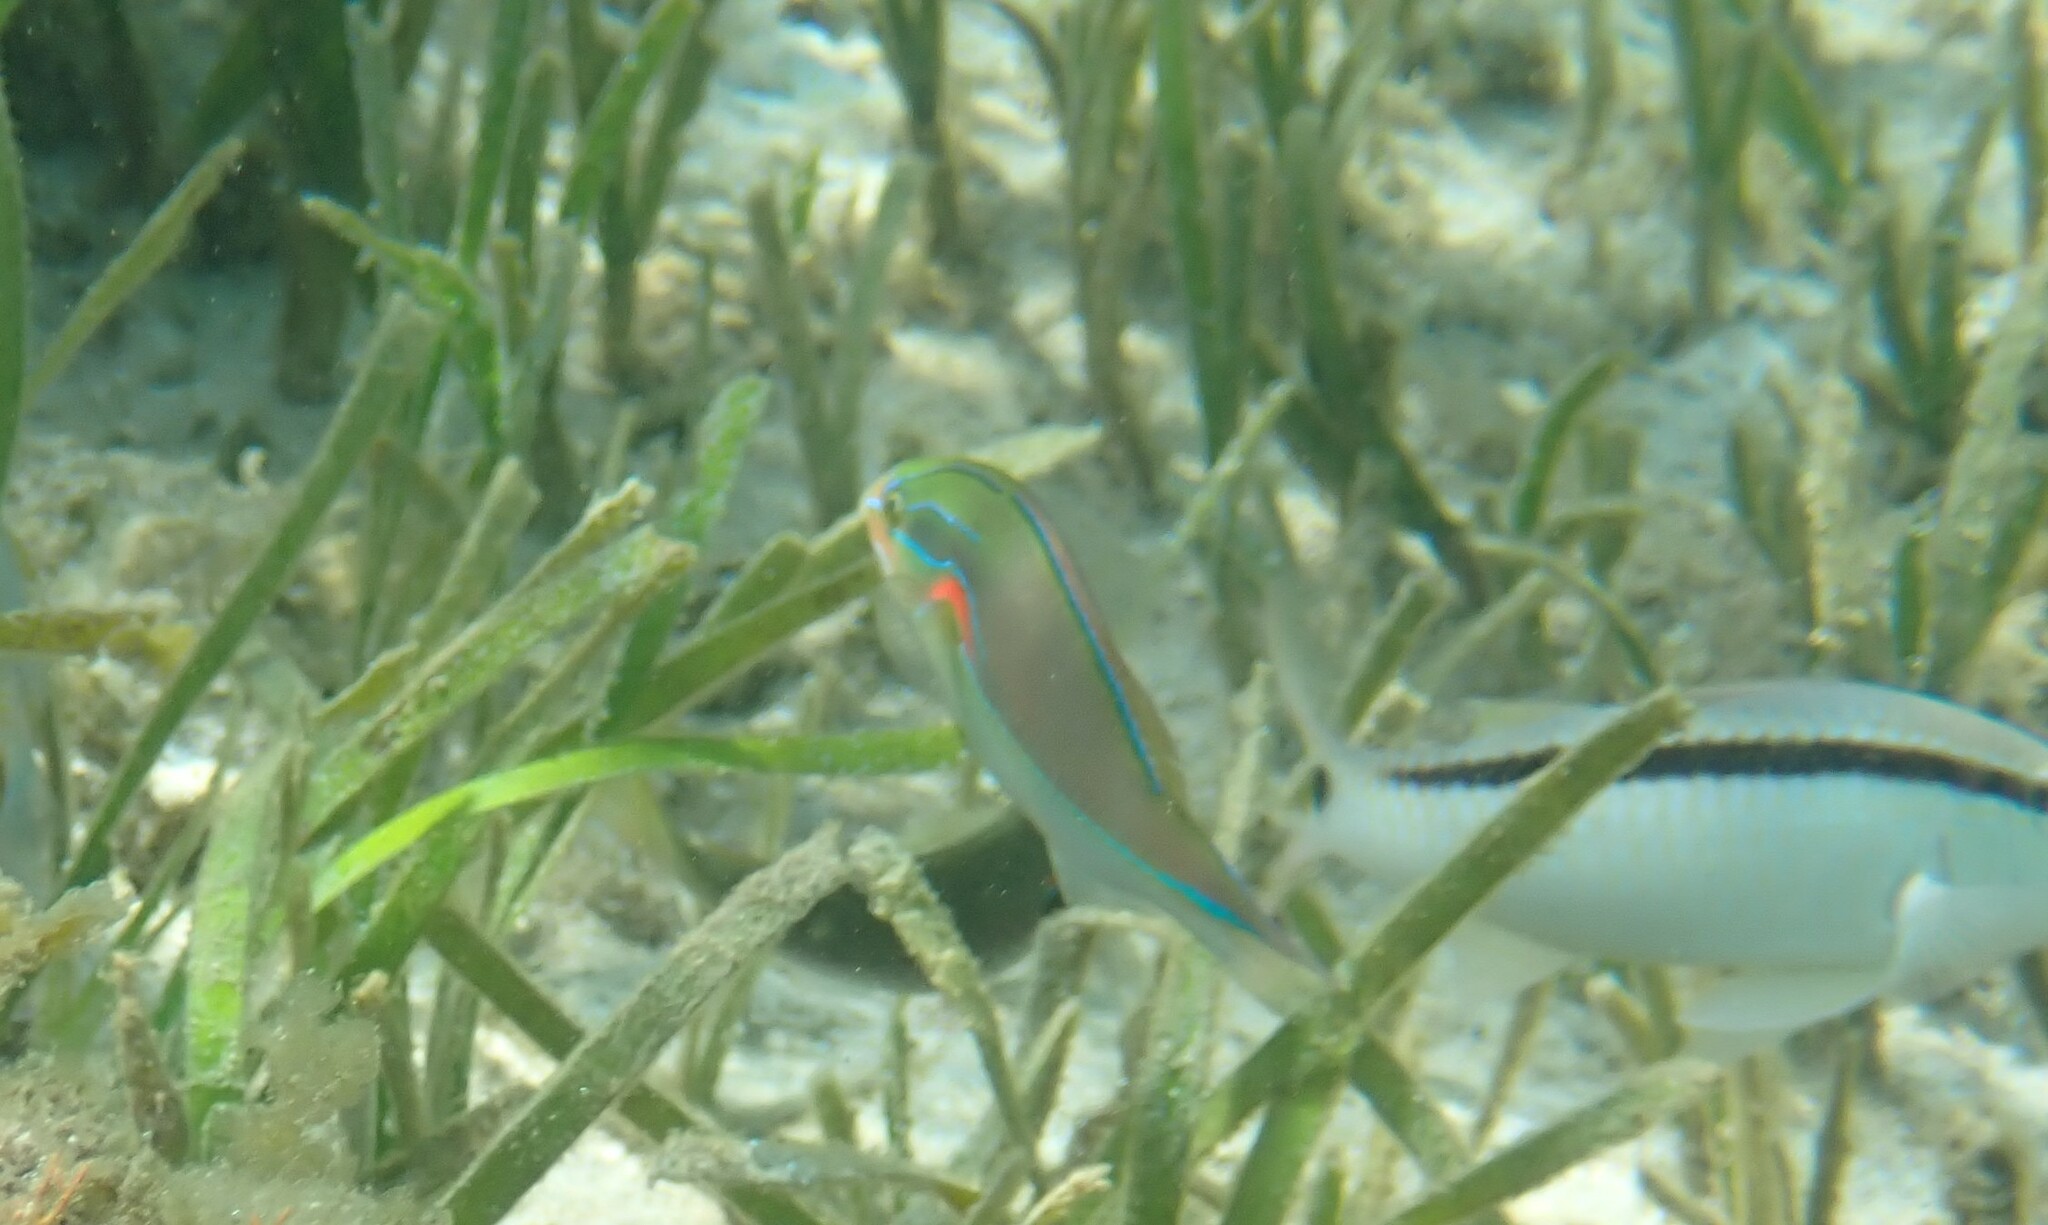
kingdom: Animalia
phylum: Chordata
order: Perciformes
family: Labridae
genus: Stethojulis
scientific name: Stethojulis bandanensis
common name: Red shoulder wrasse
